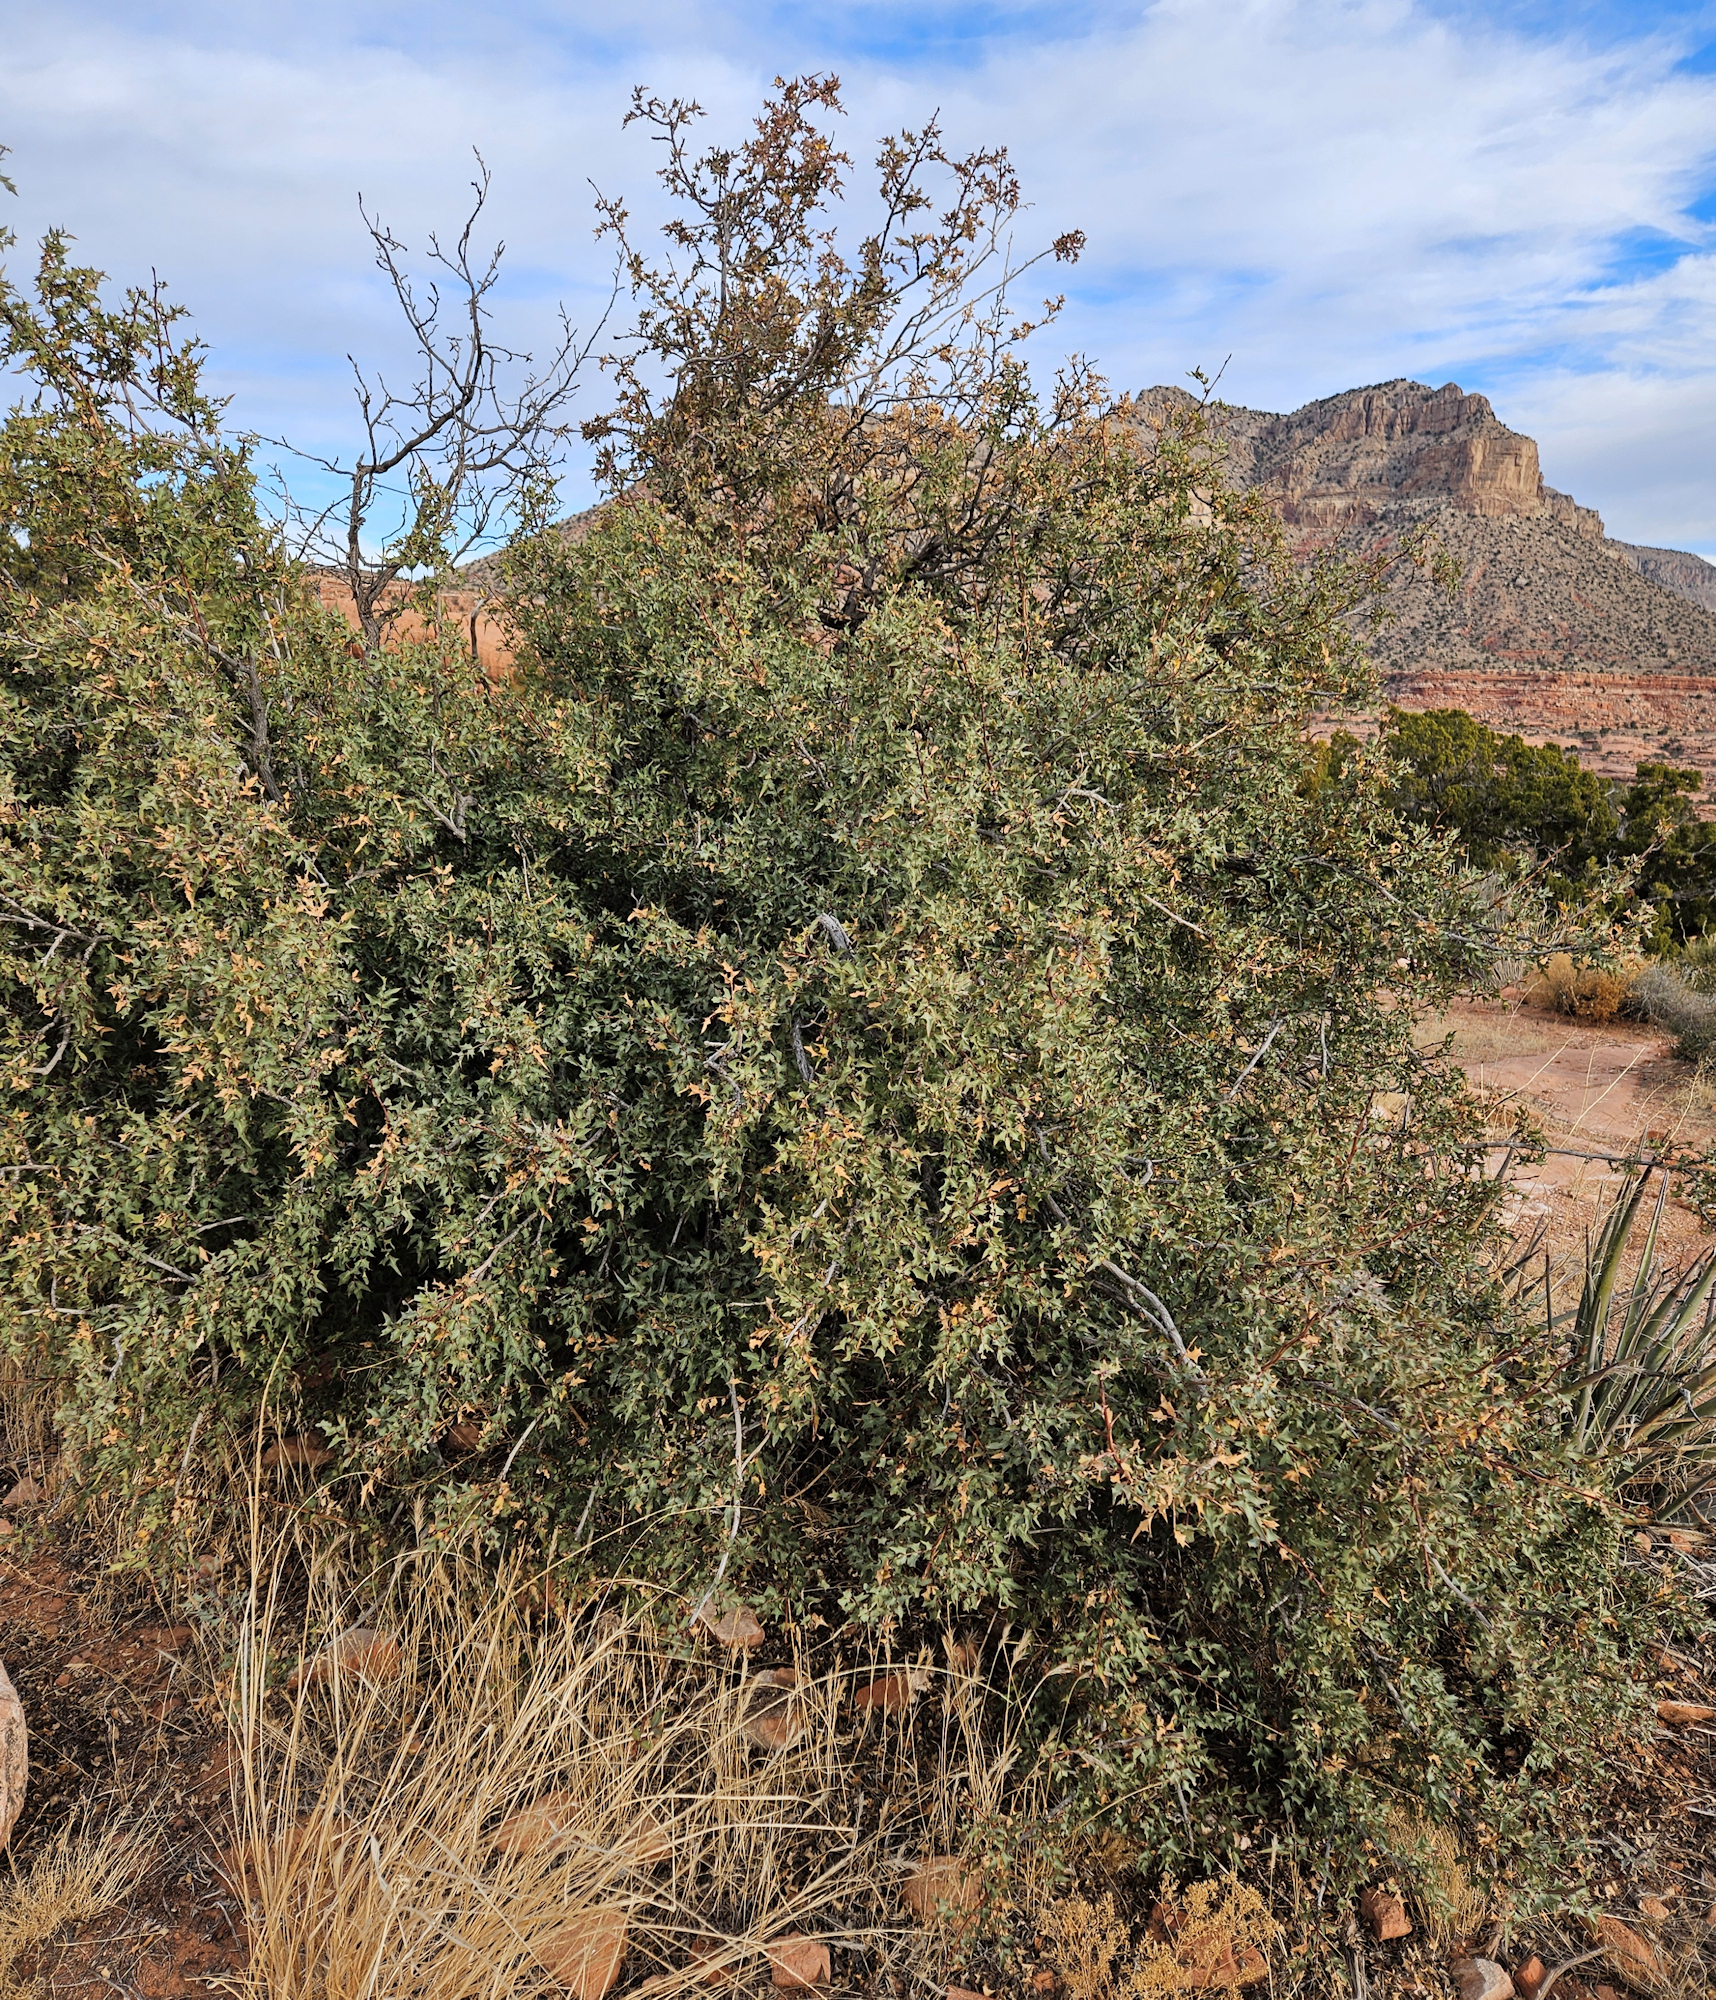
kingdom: Plantae
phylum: Tracheophyta
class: Magnoliopsida
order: Ranunculales
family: Berberidaceae
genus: Alloberberis
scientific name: Alloberberis haematocarpa
